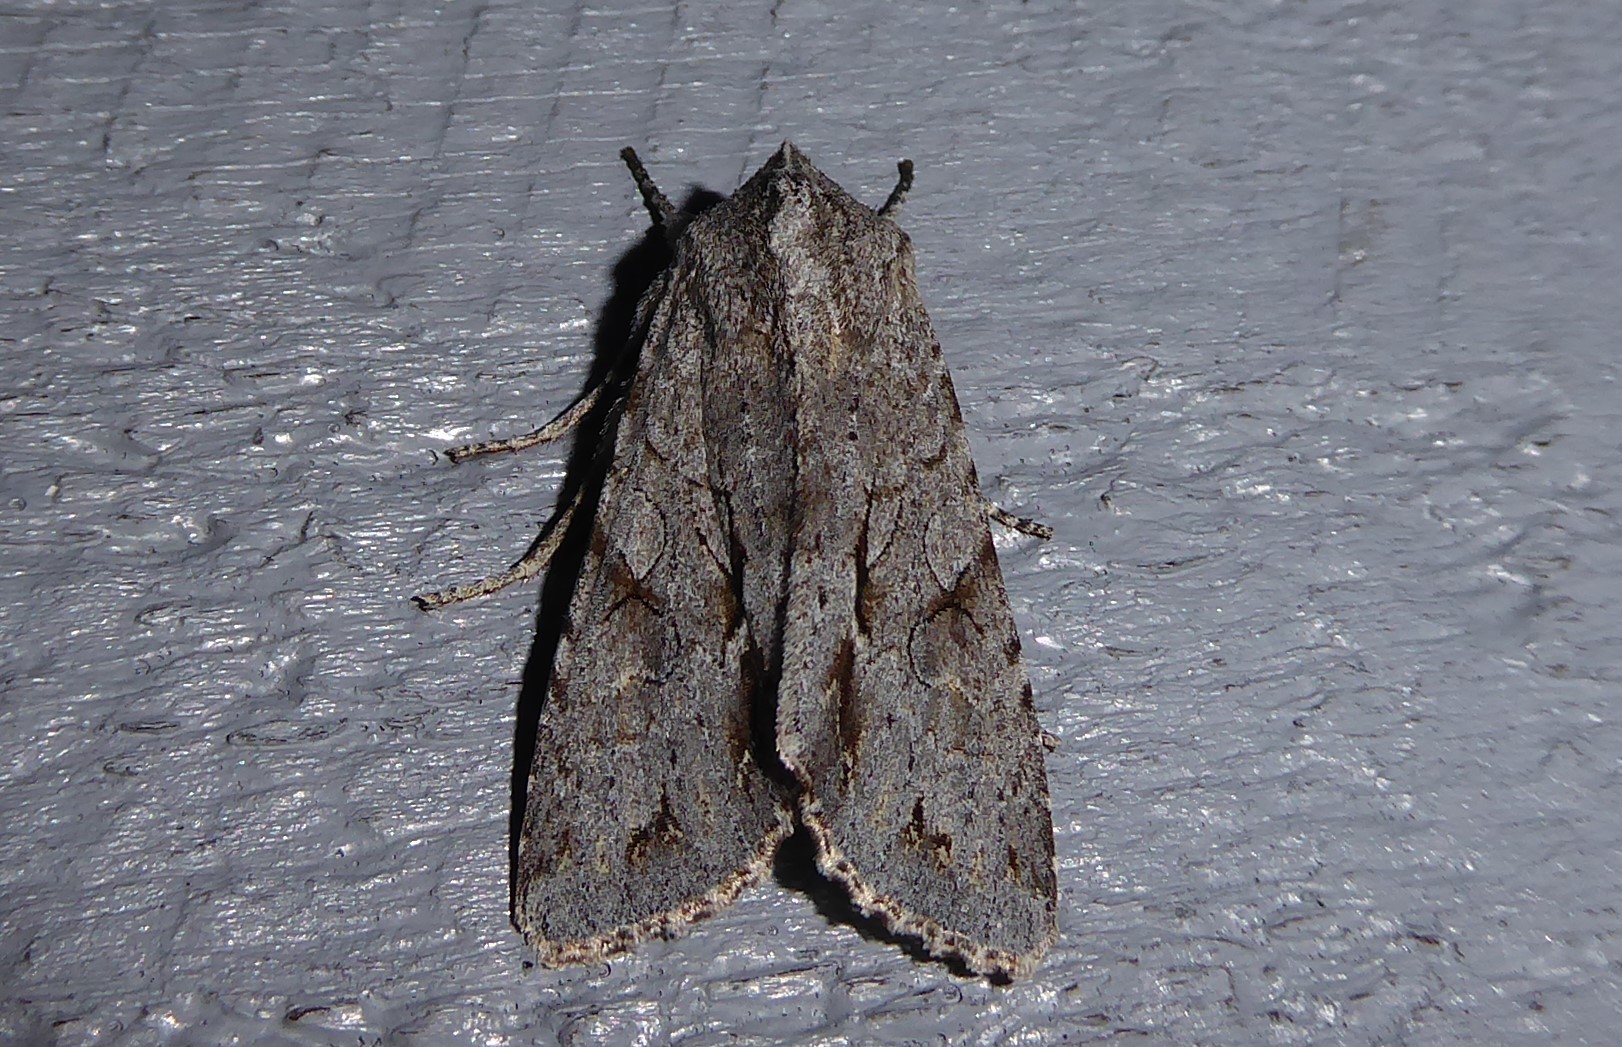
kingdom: Animalia
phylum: Arthropoda
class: Insecta
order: Lepidoptera
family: Noctuidae
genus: Ichneutica
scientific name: Ichneutica
